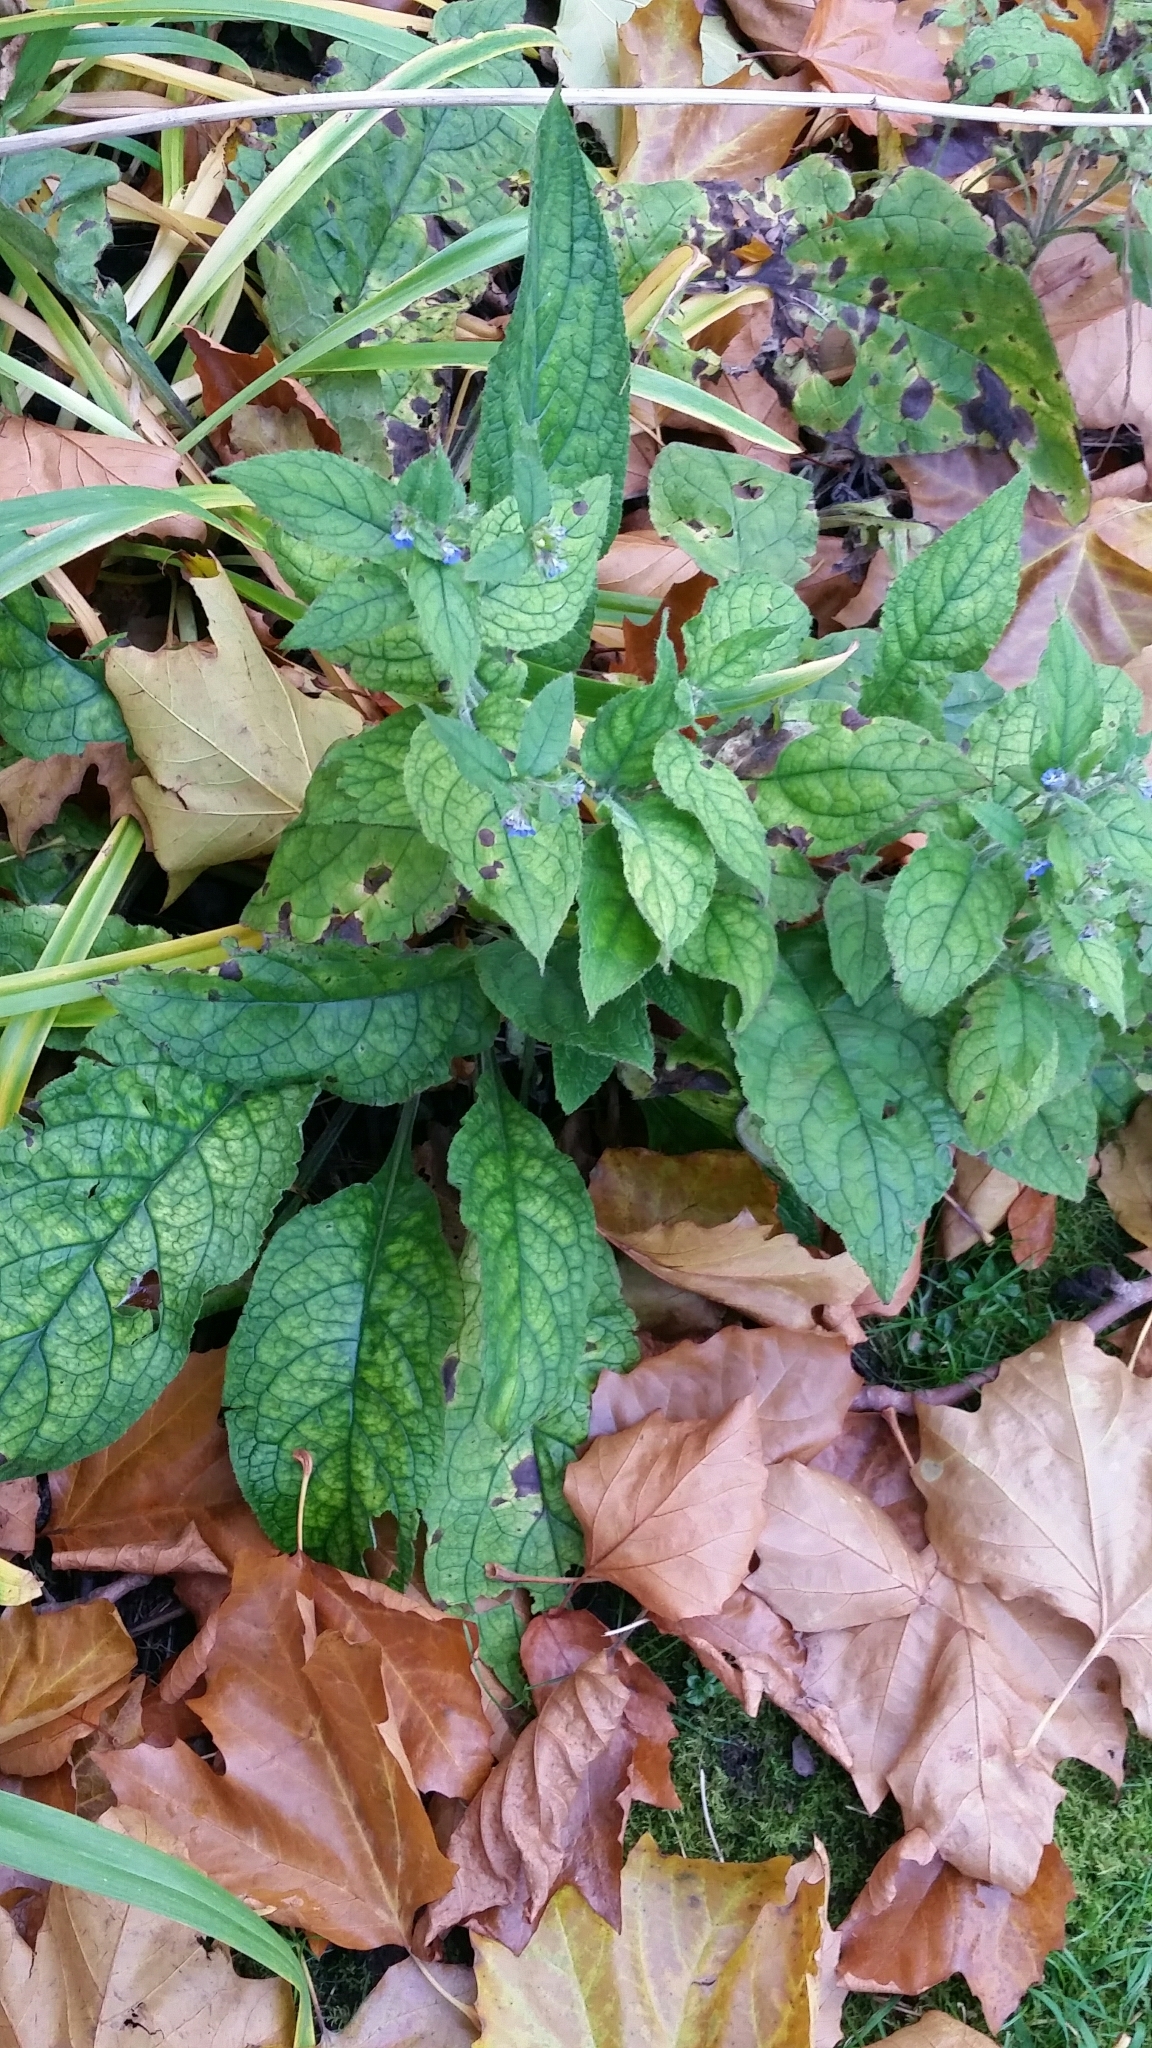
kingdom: Plantae
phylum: Tracheophyta
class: Magnoliopsida
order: Boraginales
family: Boraginaceae
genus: Pentaglottis
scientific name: Pentaglottis sempervirens
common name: Green alkanet
